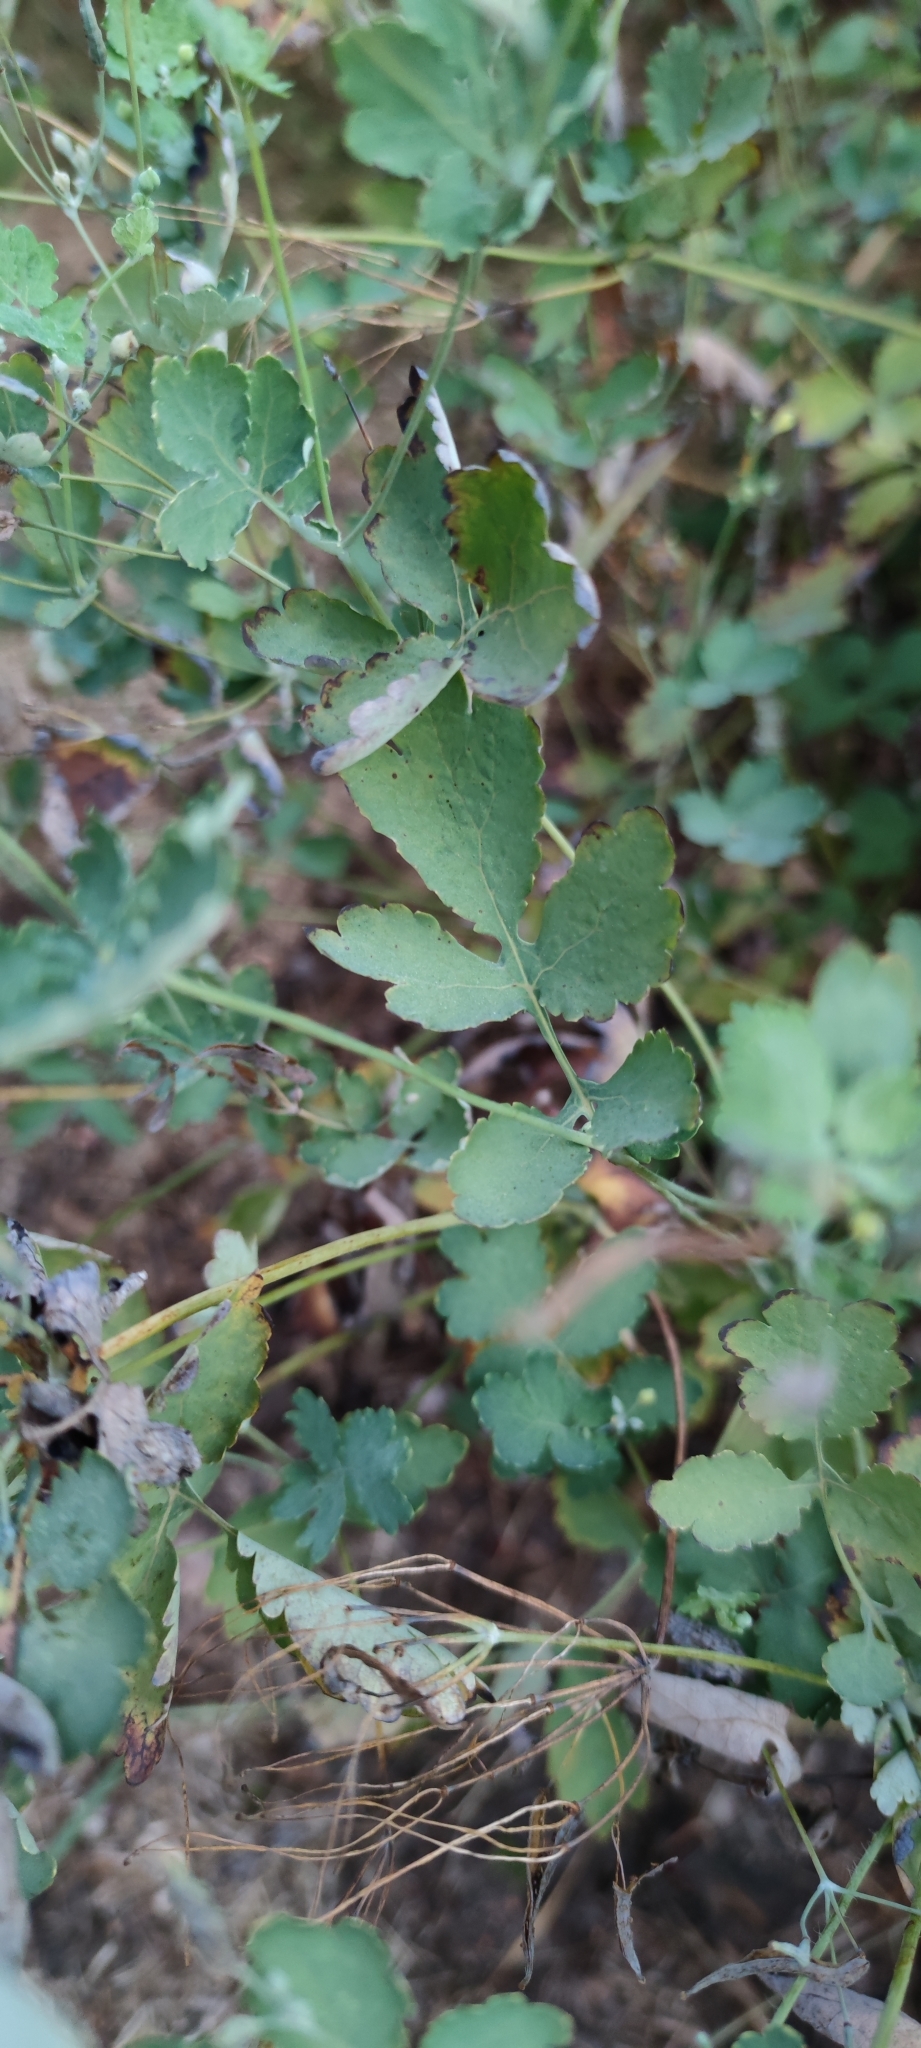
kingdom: Plantae
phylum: Tracheophyta
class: Magnoliopsida
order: Ranunculales
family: Papaveraceae
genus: Chelidonium
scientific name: Chelidonium majus
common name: Greater celandine
